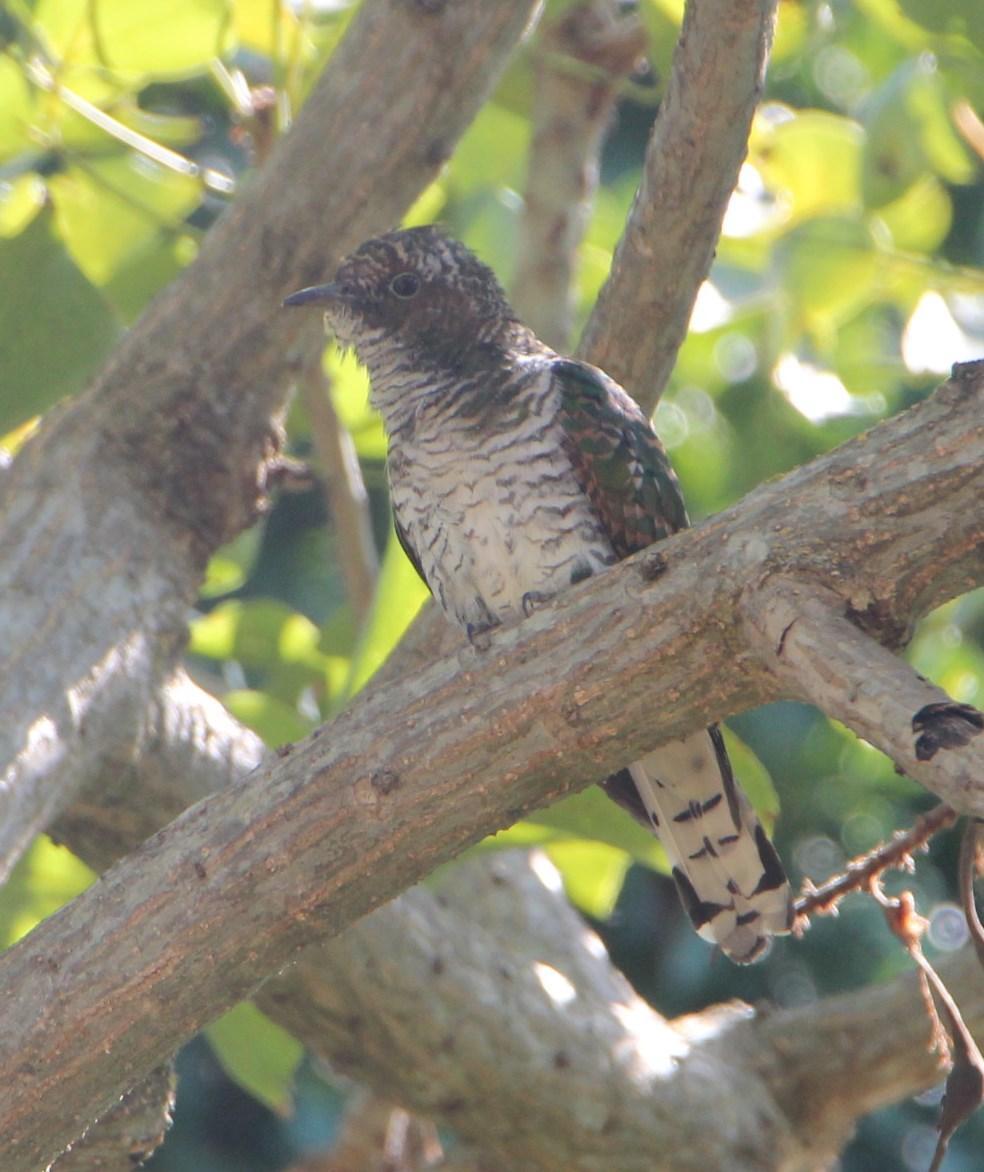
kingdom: Animalia
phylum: Chordata
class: Aves
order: Cuculiformes
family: Cuculidae
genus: Chrysococcyx
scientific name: Chrysococcyx klaas
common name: Klaas's cuckoo
